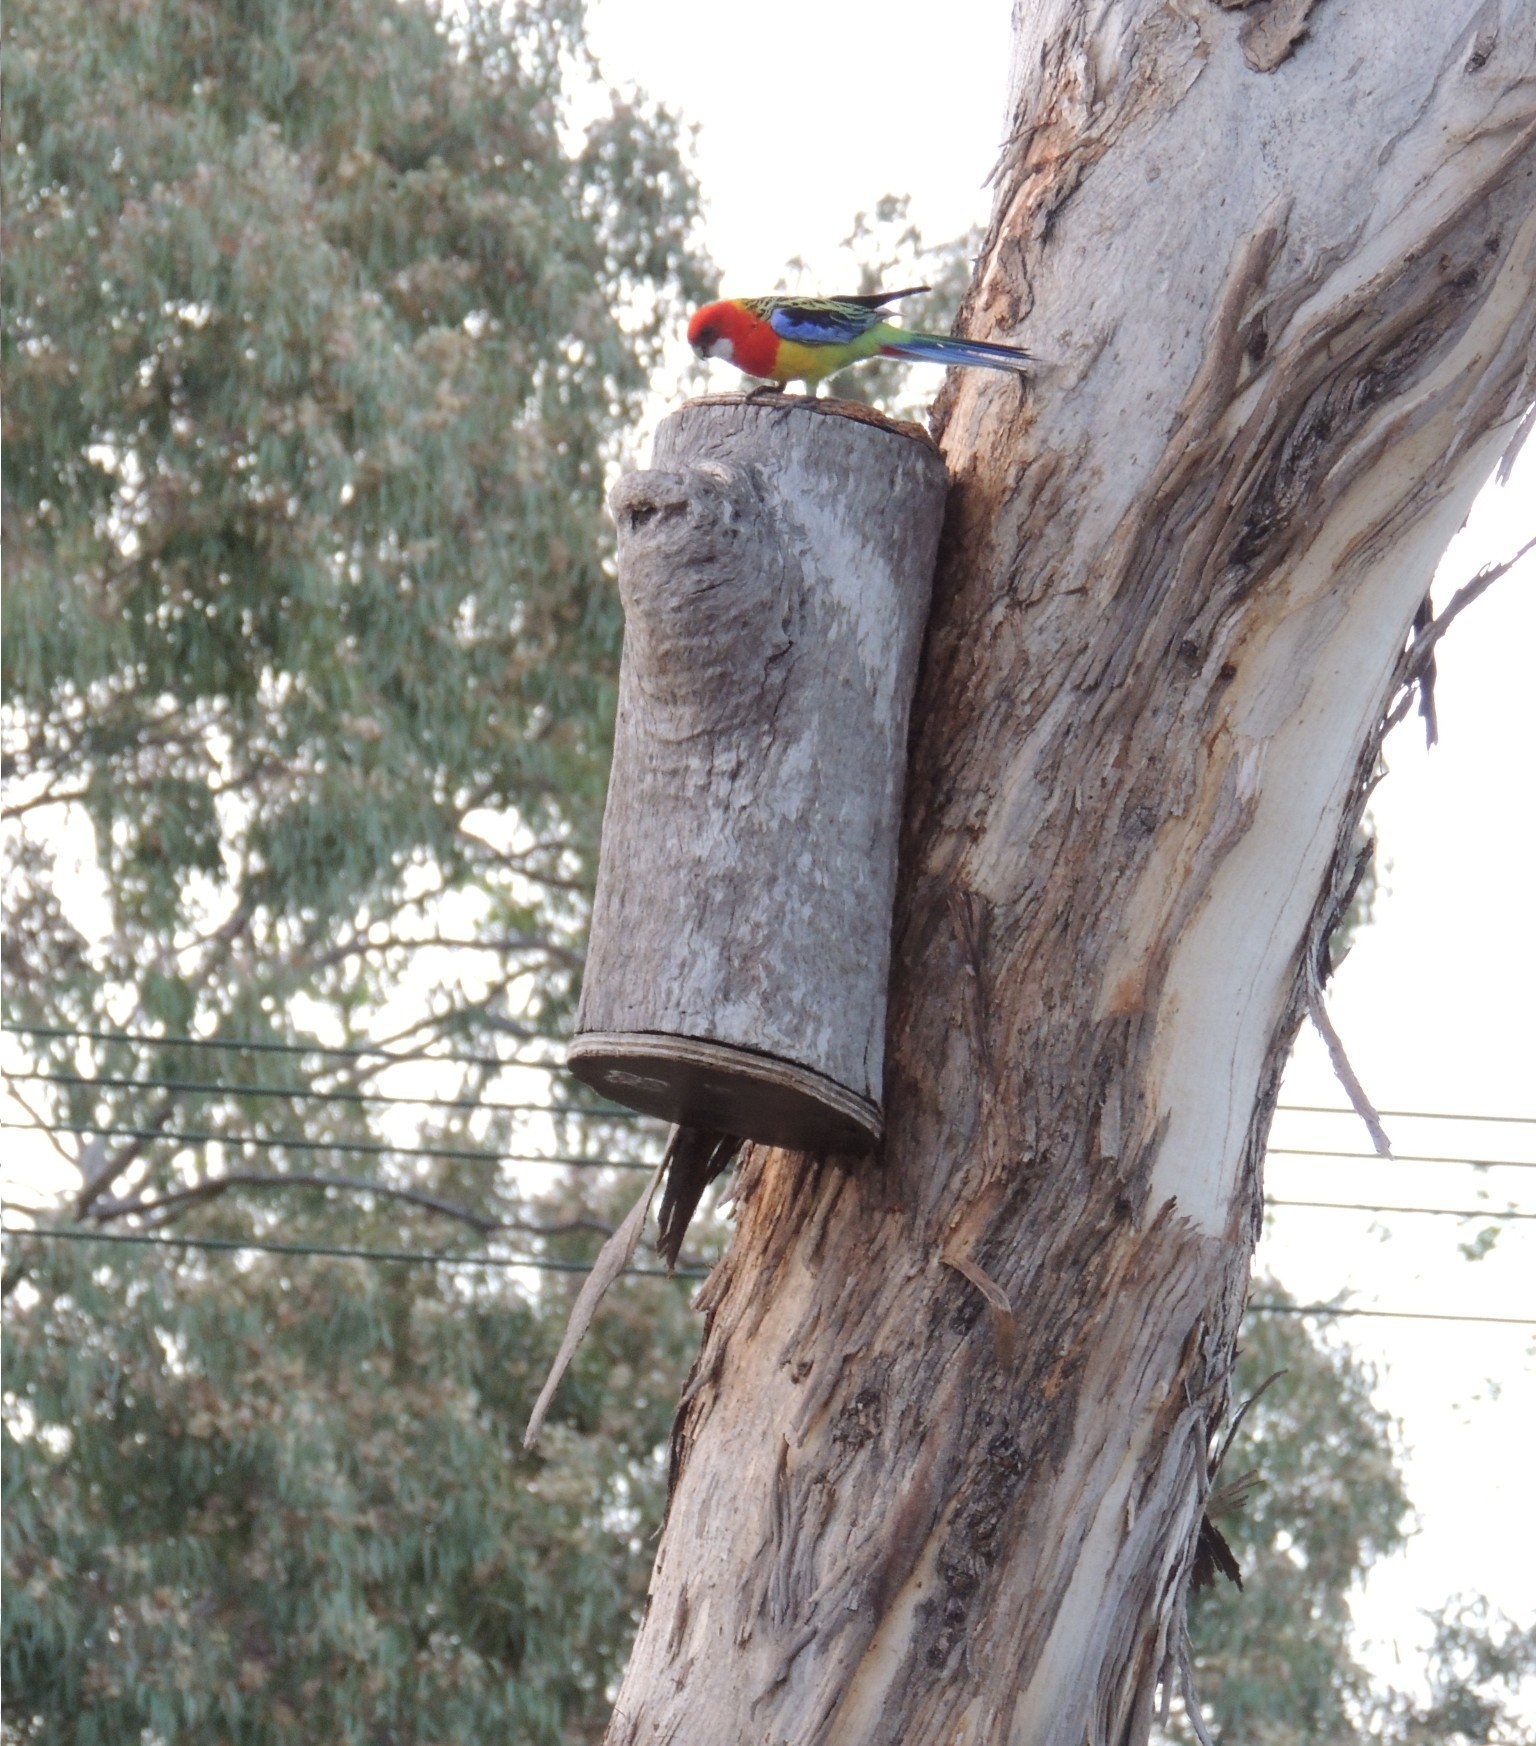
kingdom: Animalia
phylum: Chordata
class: Aves
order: Psittaciformes
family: Psittacidae
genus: Platycercus
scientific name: Platycercus eximius
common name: Eastern rosella
